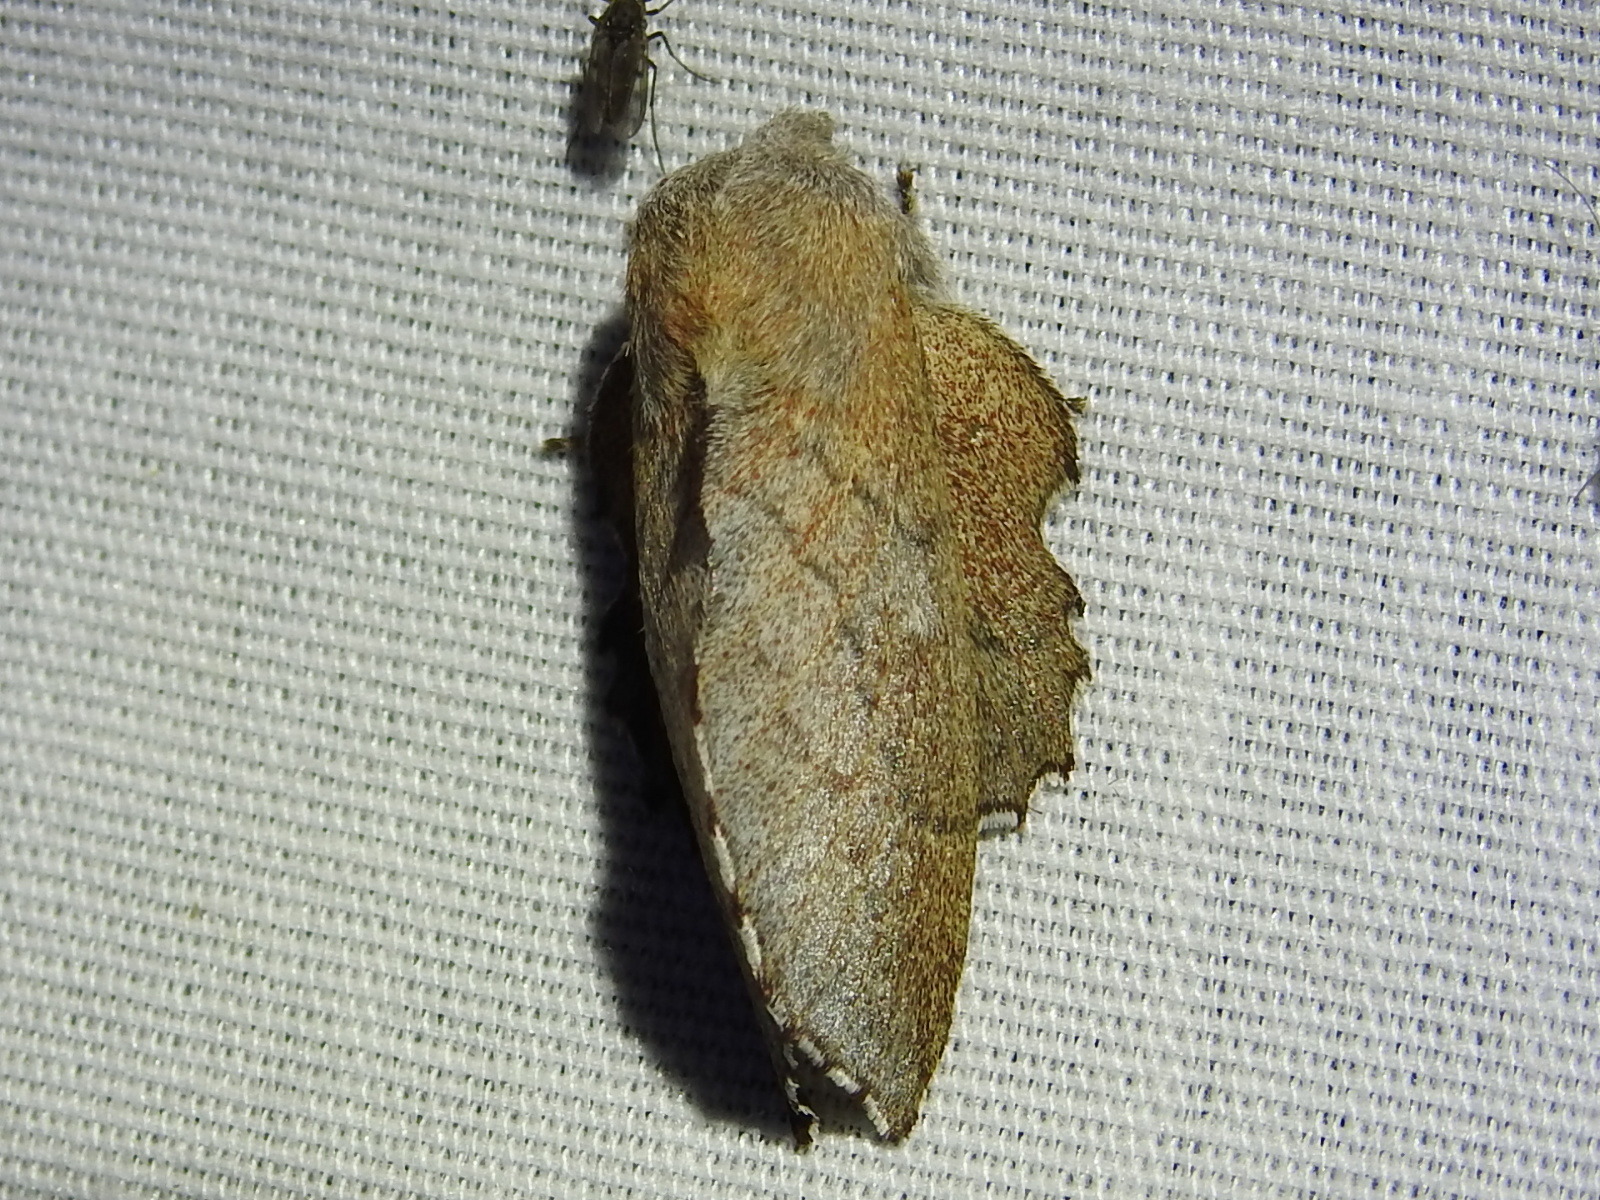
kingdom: Animalia
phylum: Arthropoda
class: Insecta
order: Lepidoptera
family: Lasiocampidae
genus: Phyllodesma
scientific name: Phyllodesma americana
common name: American lappet moth
